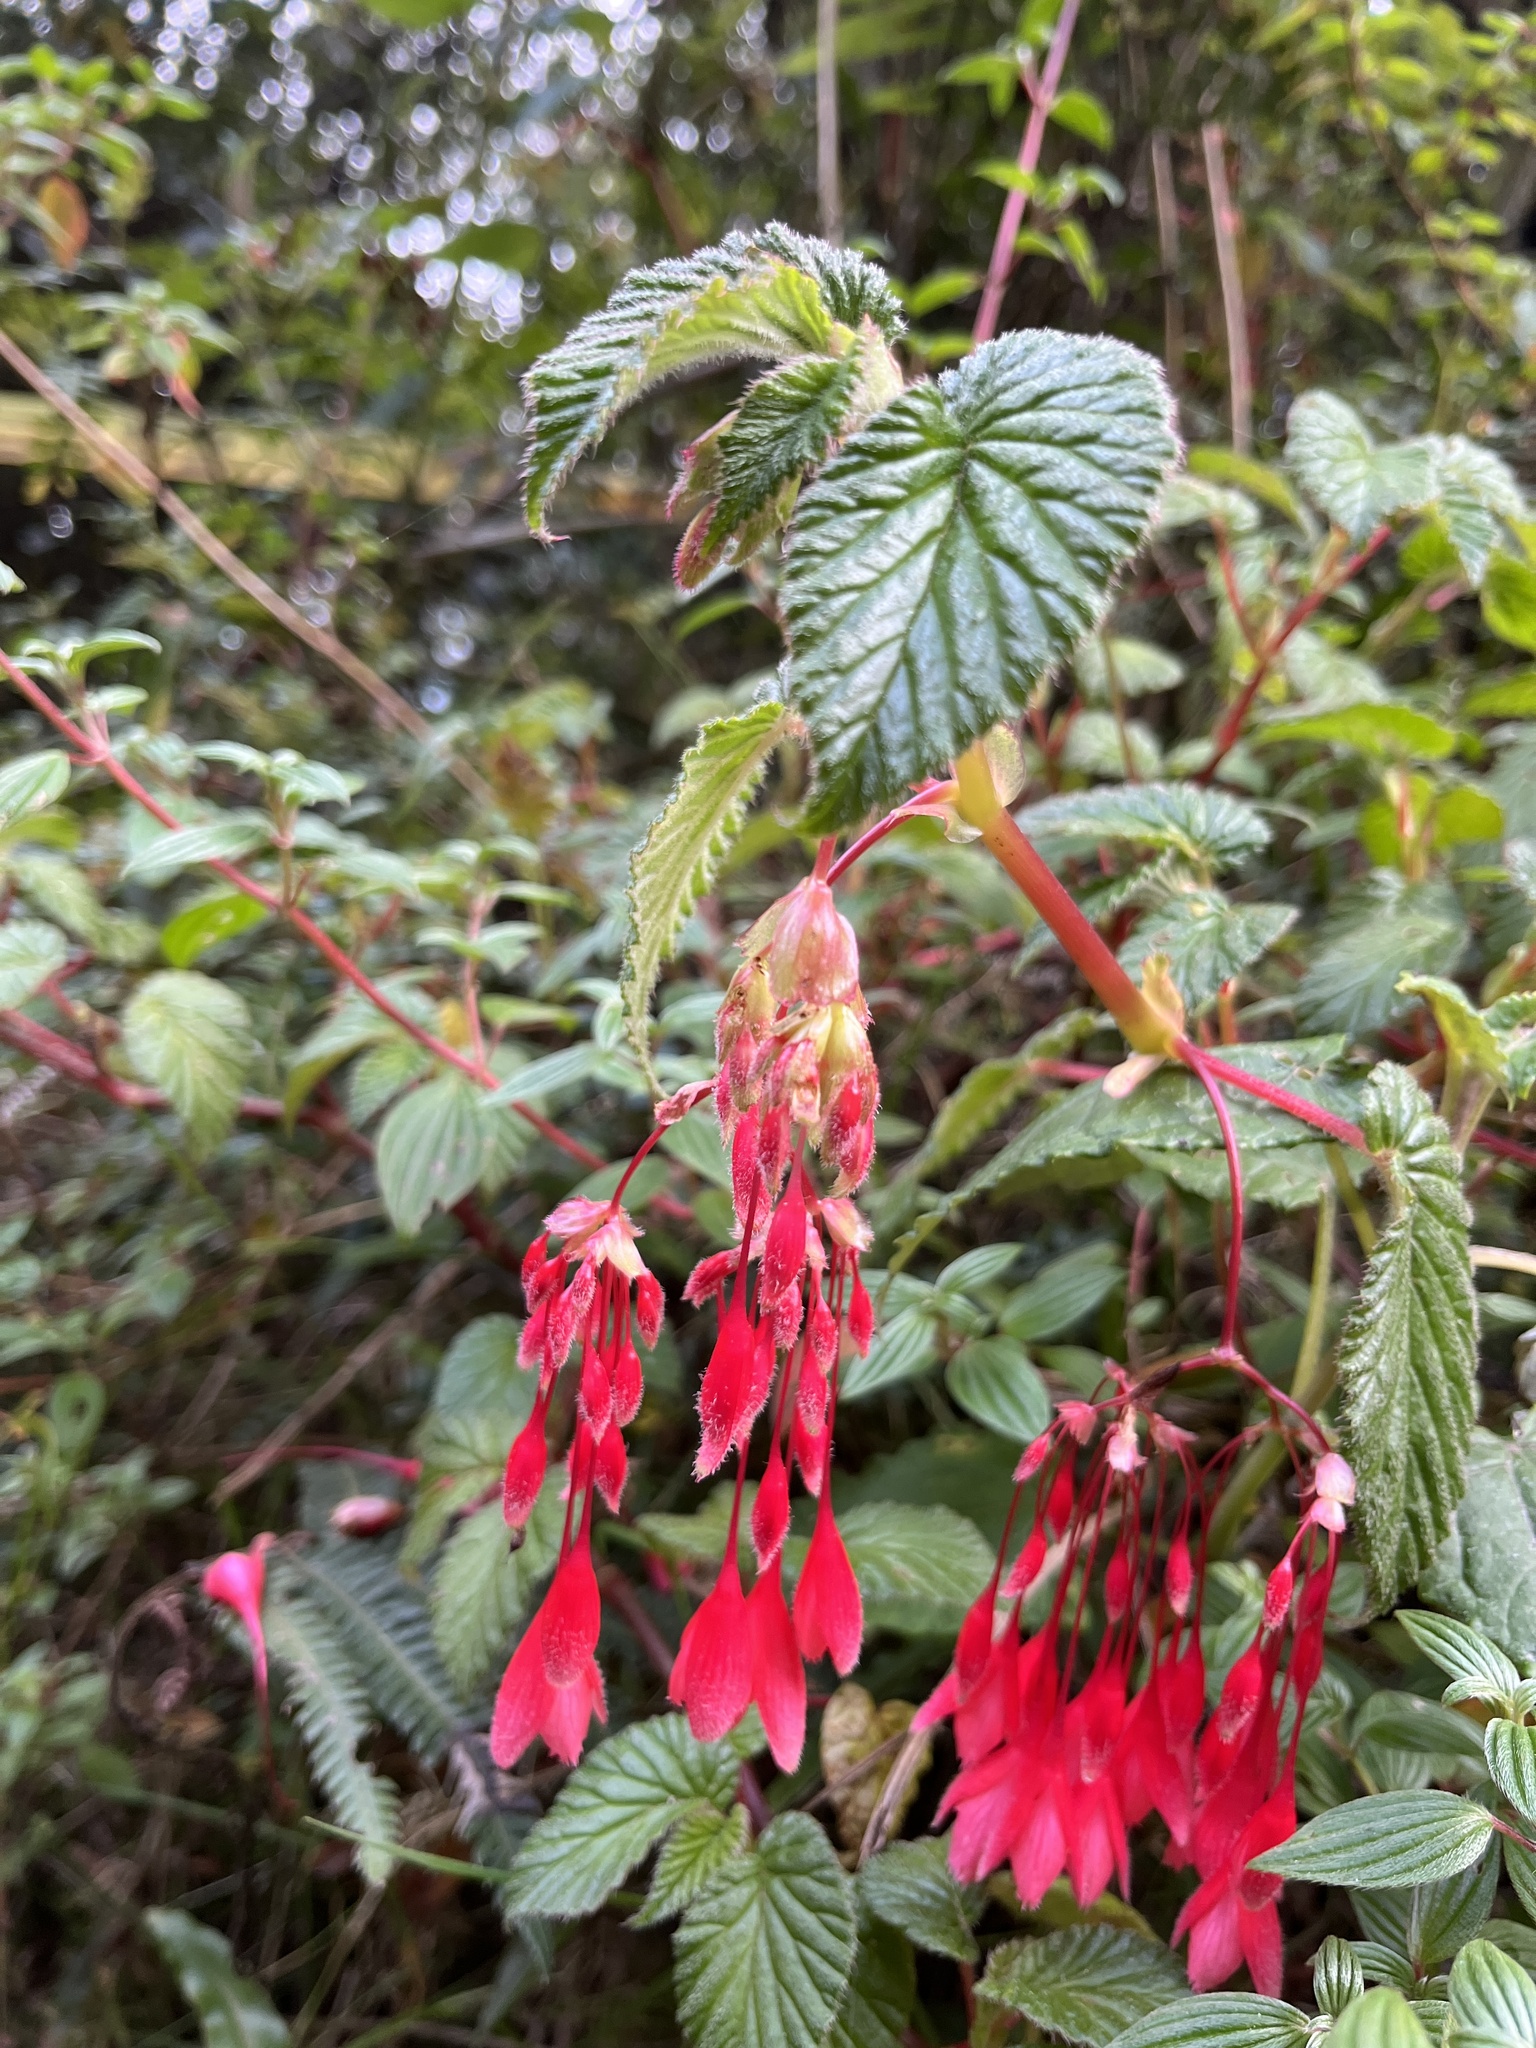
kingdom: Plantae
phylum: Tracheophyta
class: Magnoliopsida
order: Cucurbitales
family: Begoniaceae
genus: Begonia
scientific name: Begonia umbellata
